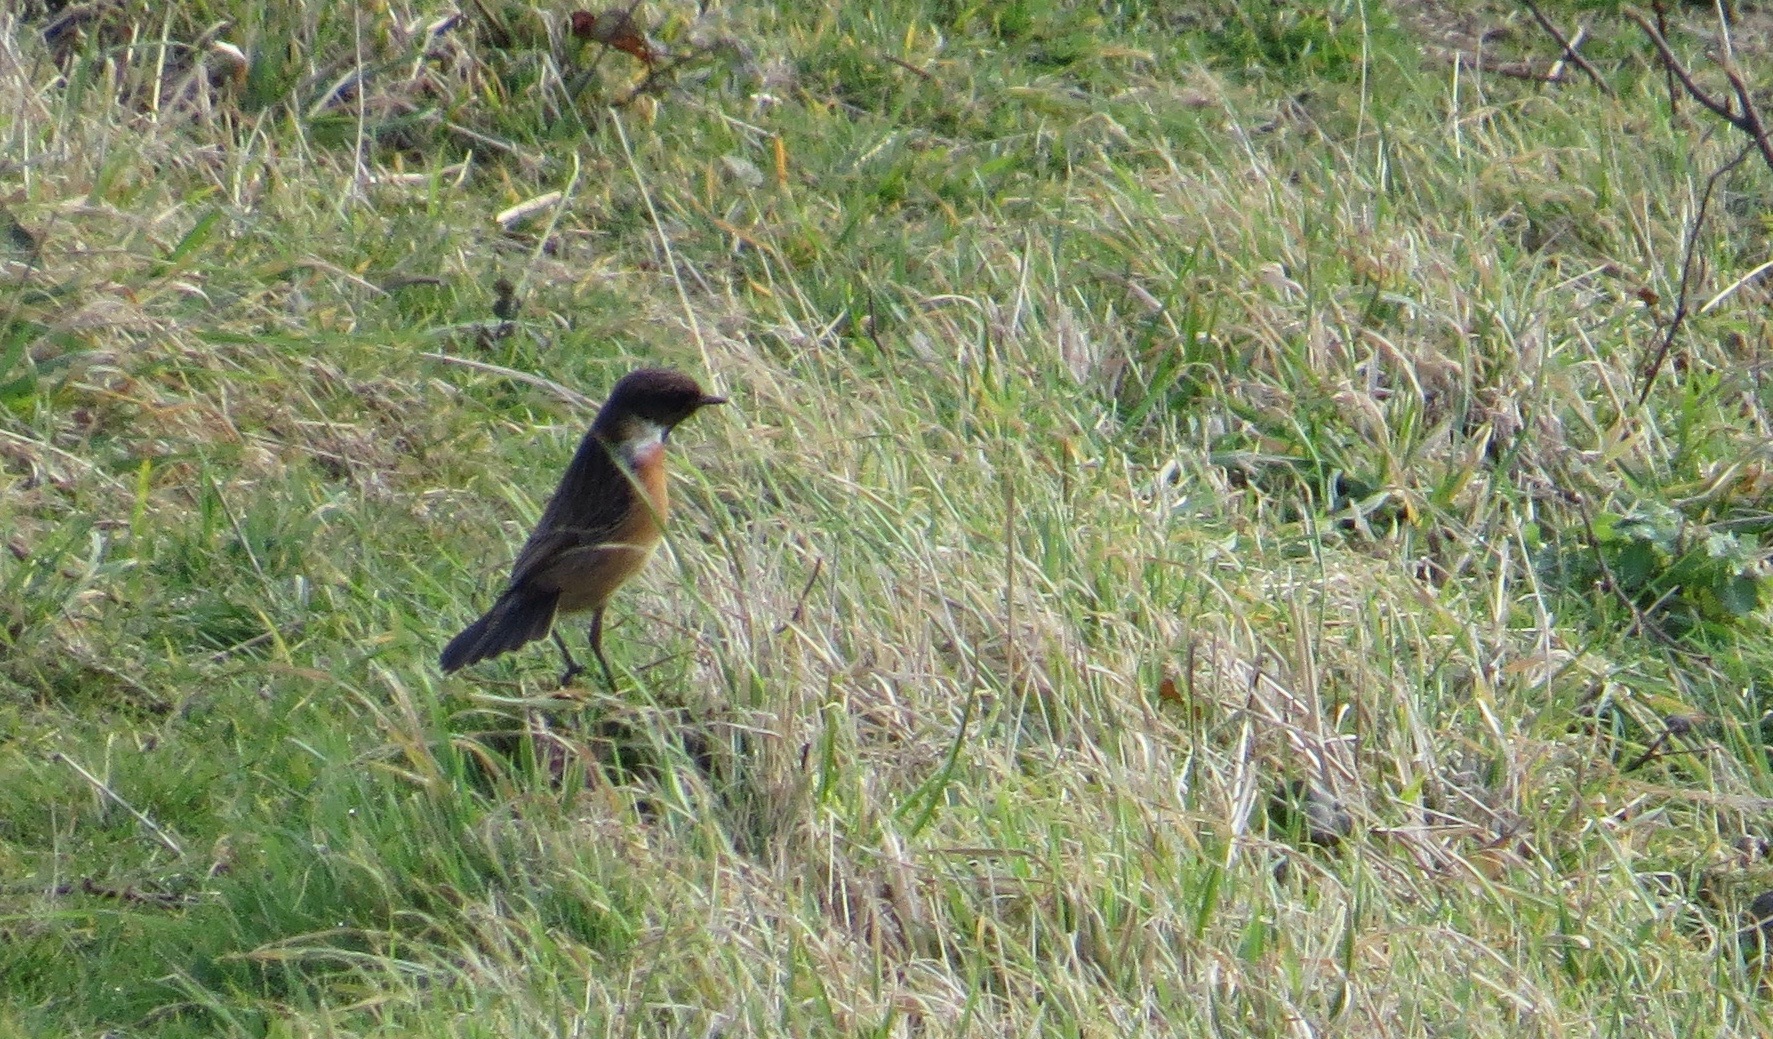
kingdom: Animalia
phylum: Chordata
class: Aves
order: Passeriformes
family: Muscicapidae
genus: Saxicola
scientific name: Saxicola rubicola
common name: European stonechat
